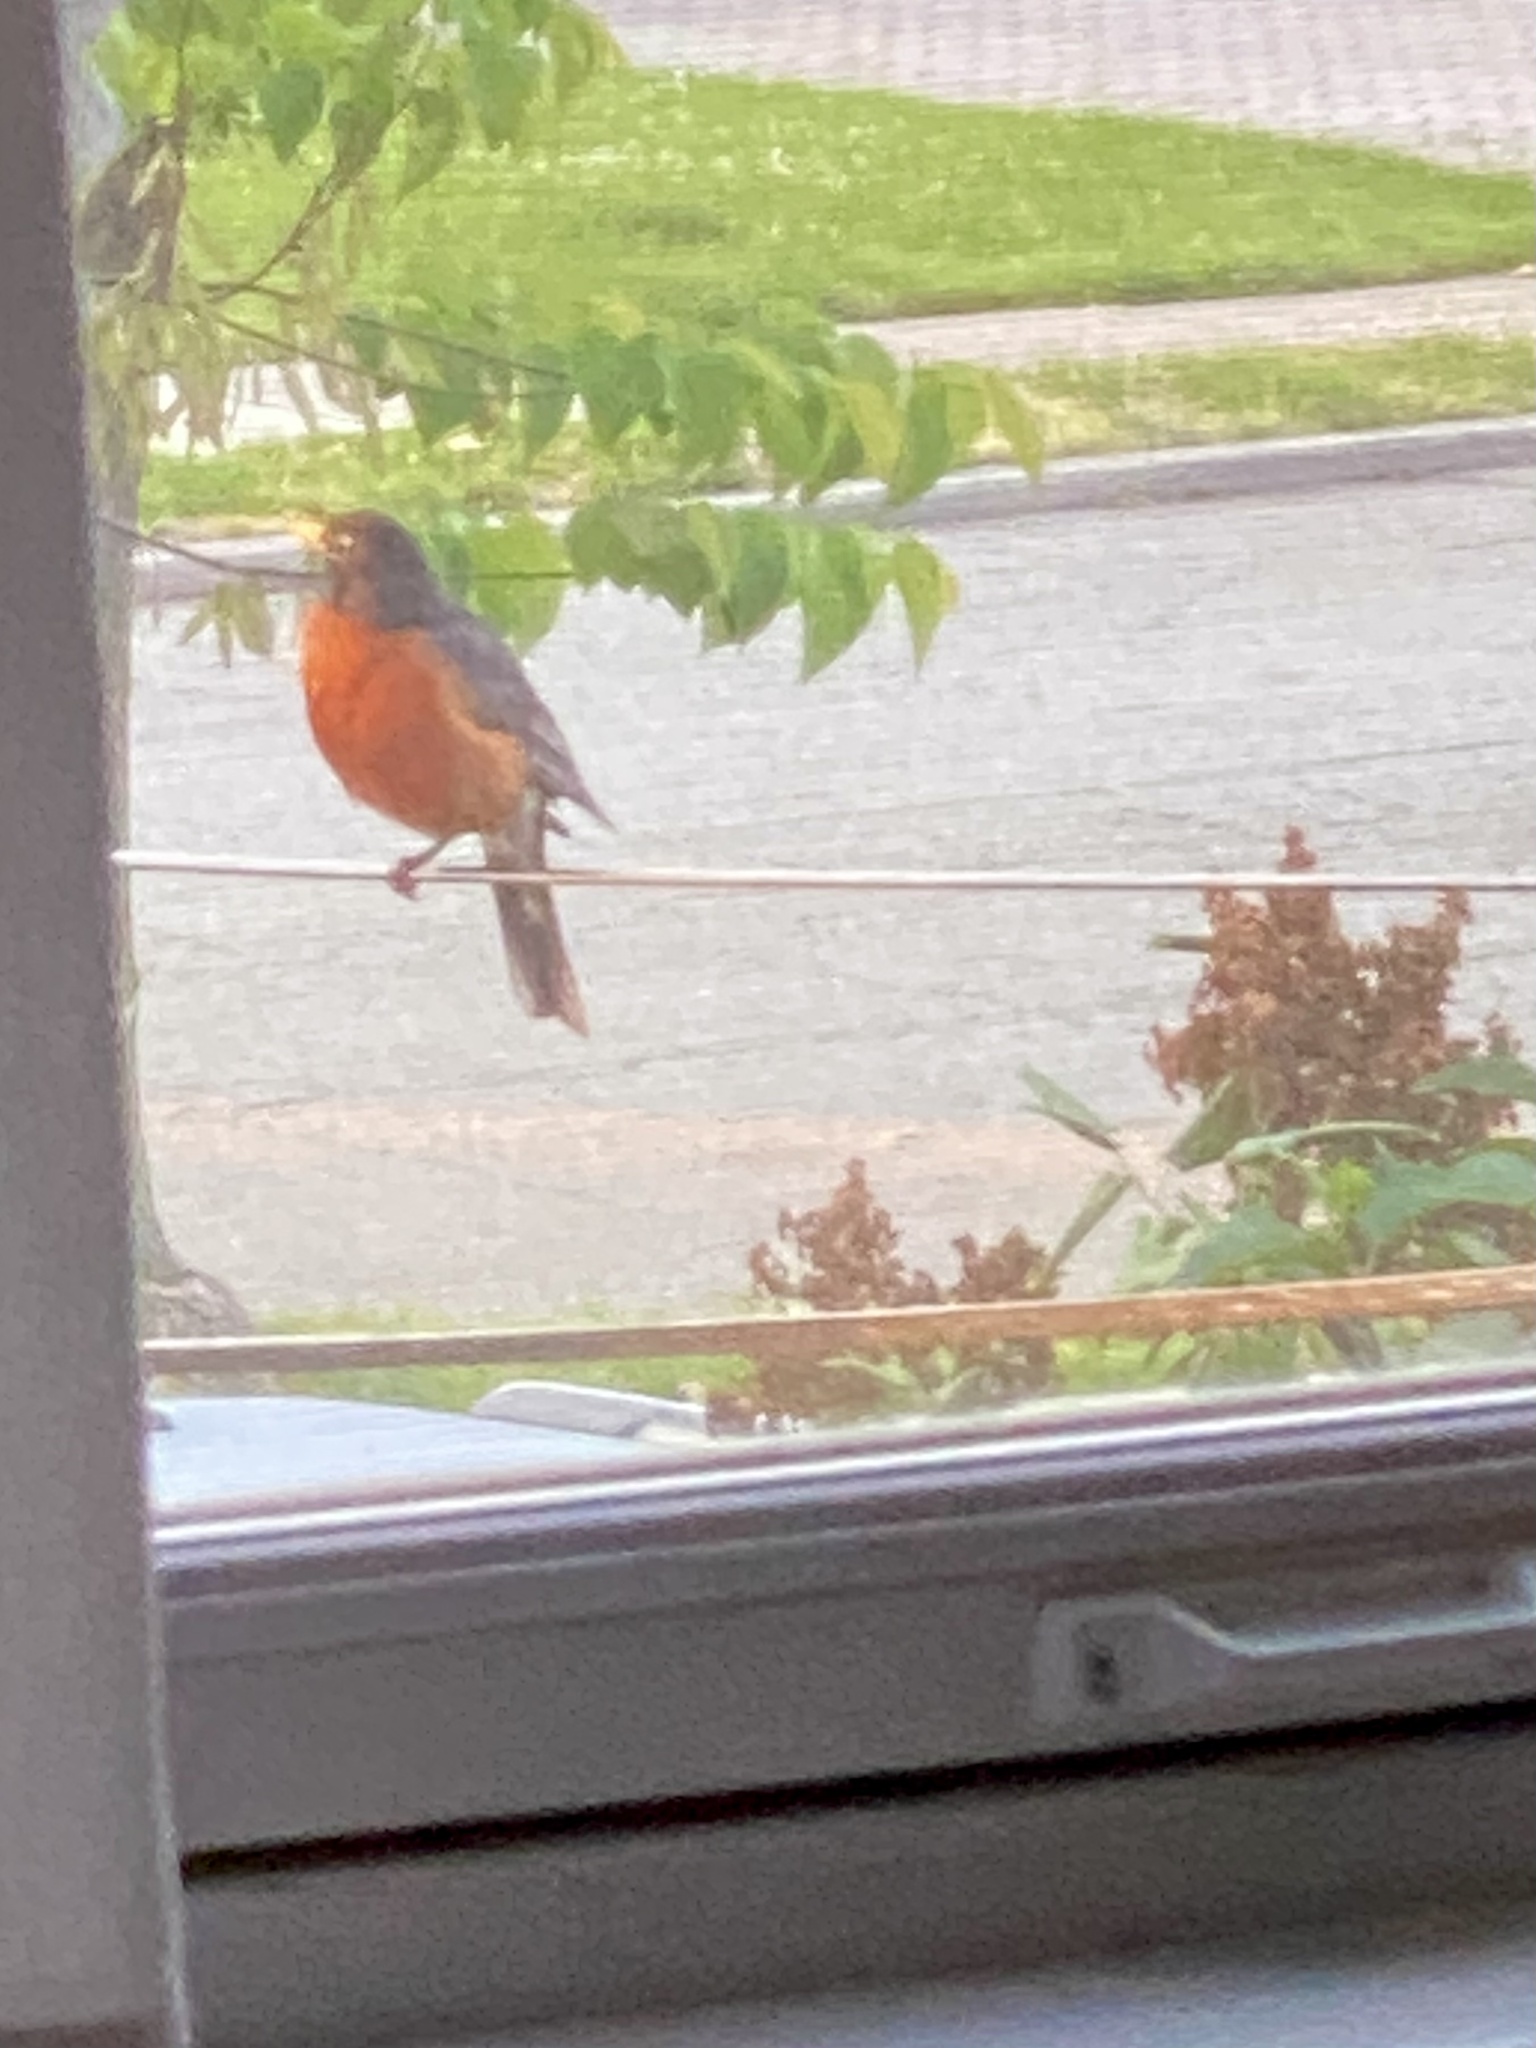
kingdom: Animalia
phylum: Chordata
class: Aves
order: Passeriformes
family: Turdidae
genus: Turdus
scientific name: Turdus migratorius
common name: American robin
